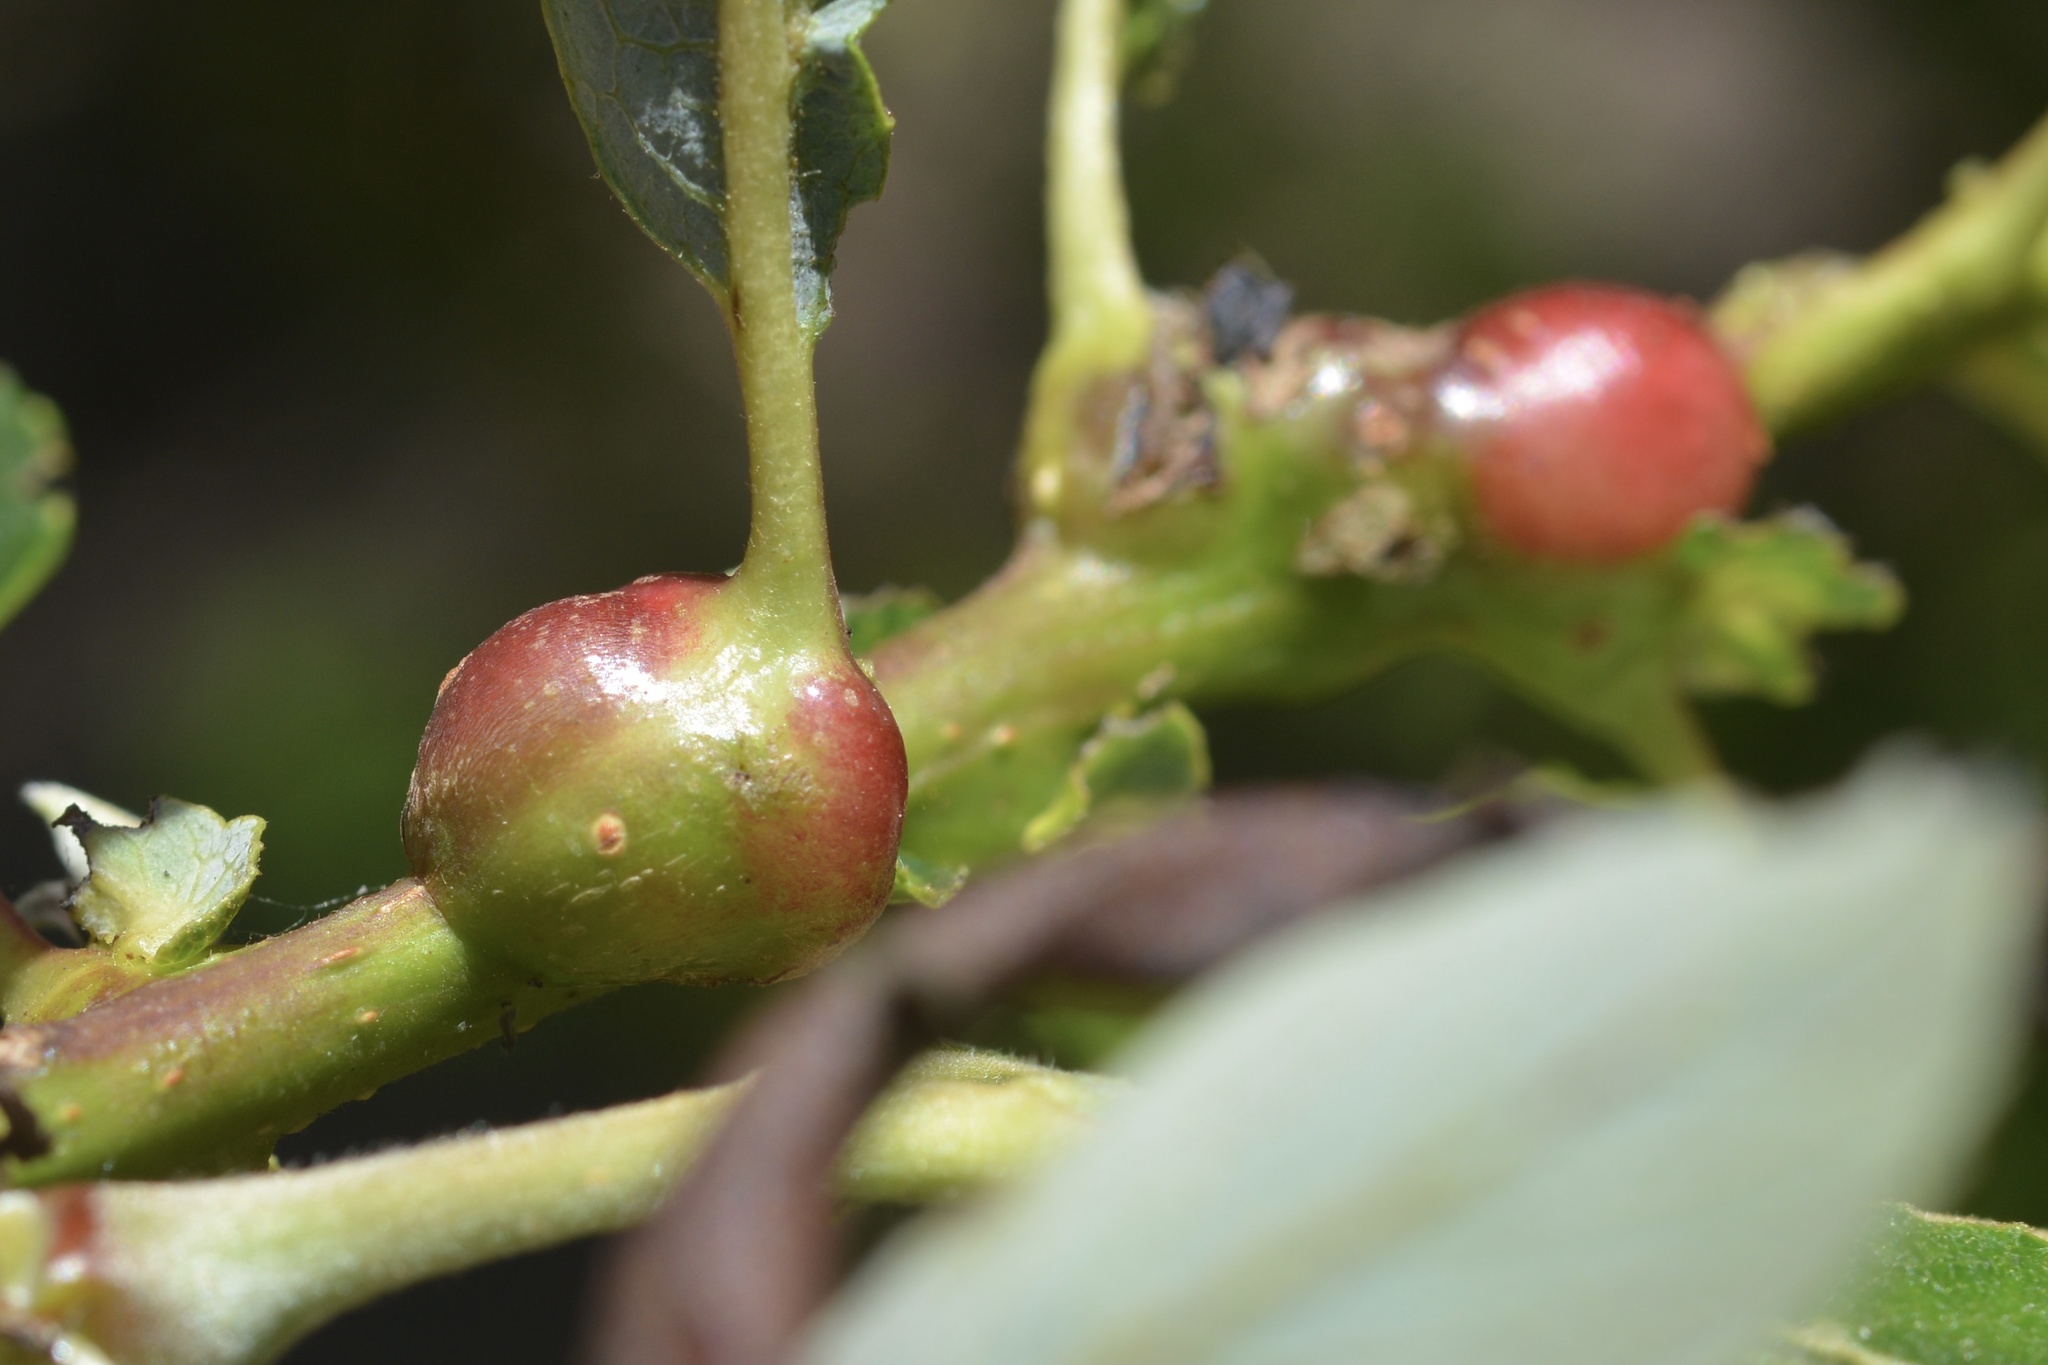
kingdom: Animalia
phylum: Arthropoda
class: Insecta
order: Diptera
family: Cecidomyiidae
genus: Rabdophaga
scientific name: Rabdophaga salicisbatatas
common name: Potato gall midge
